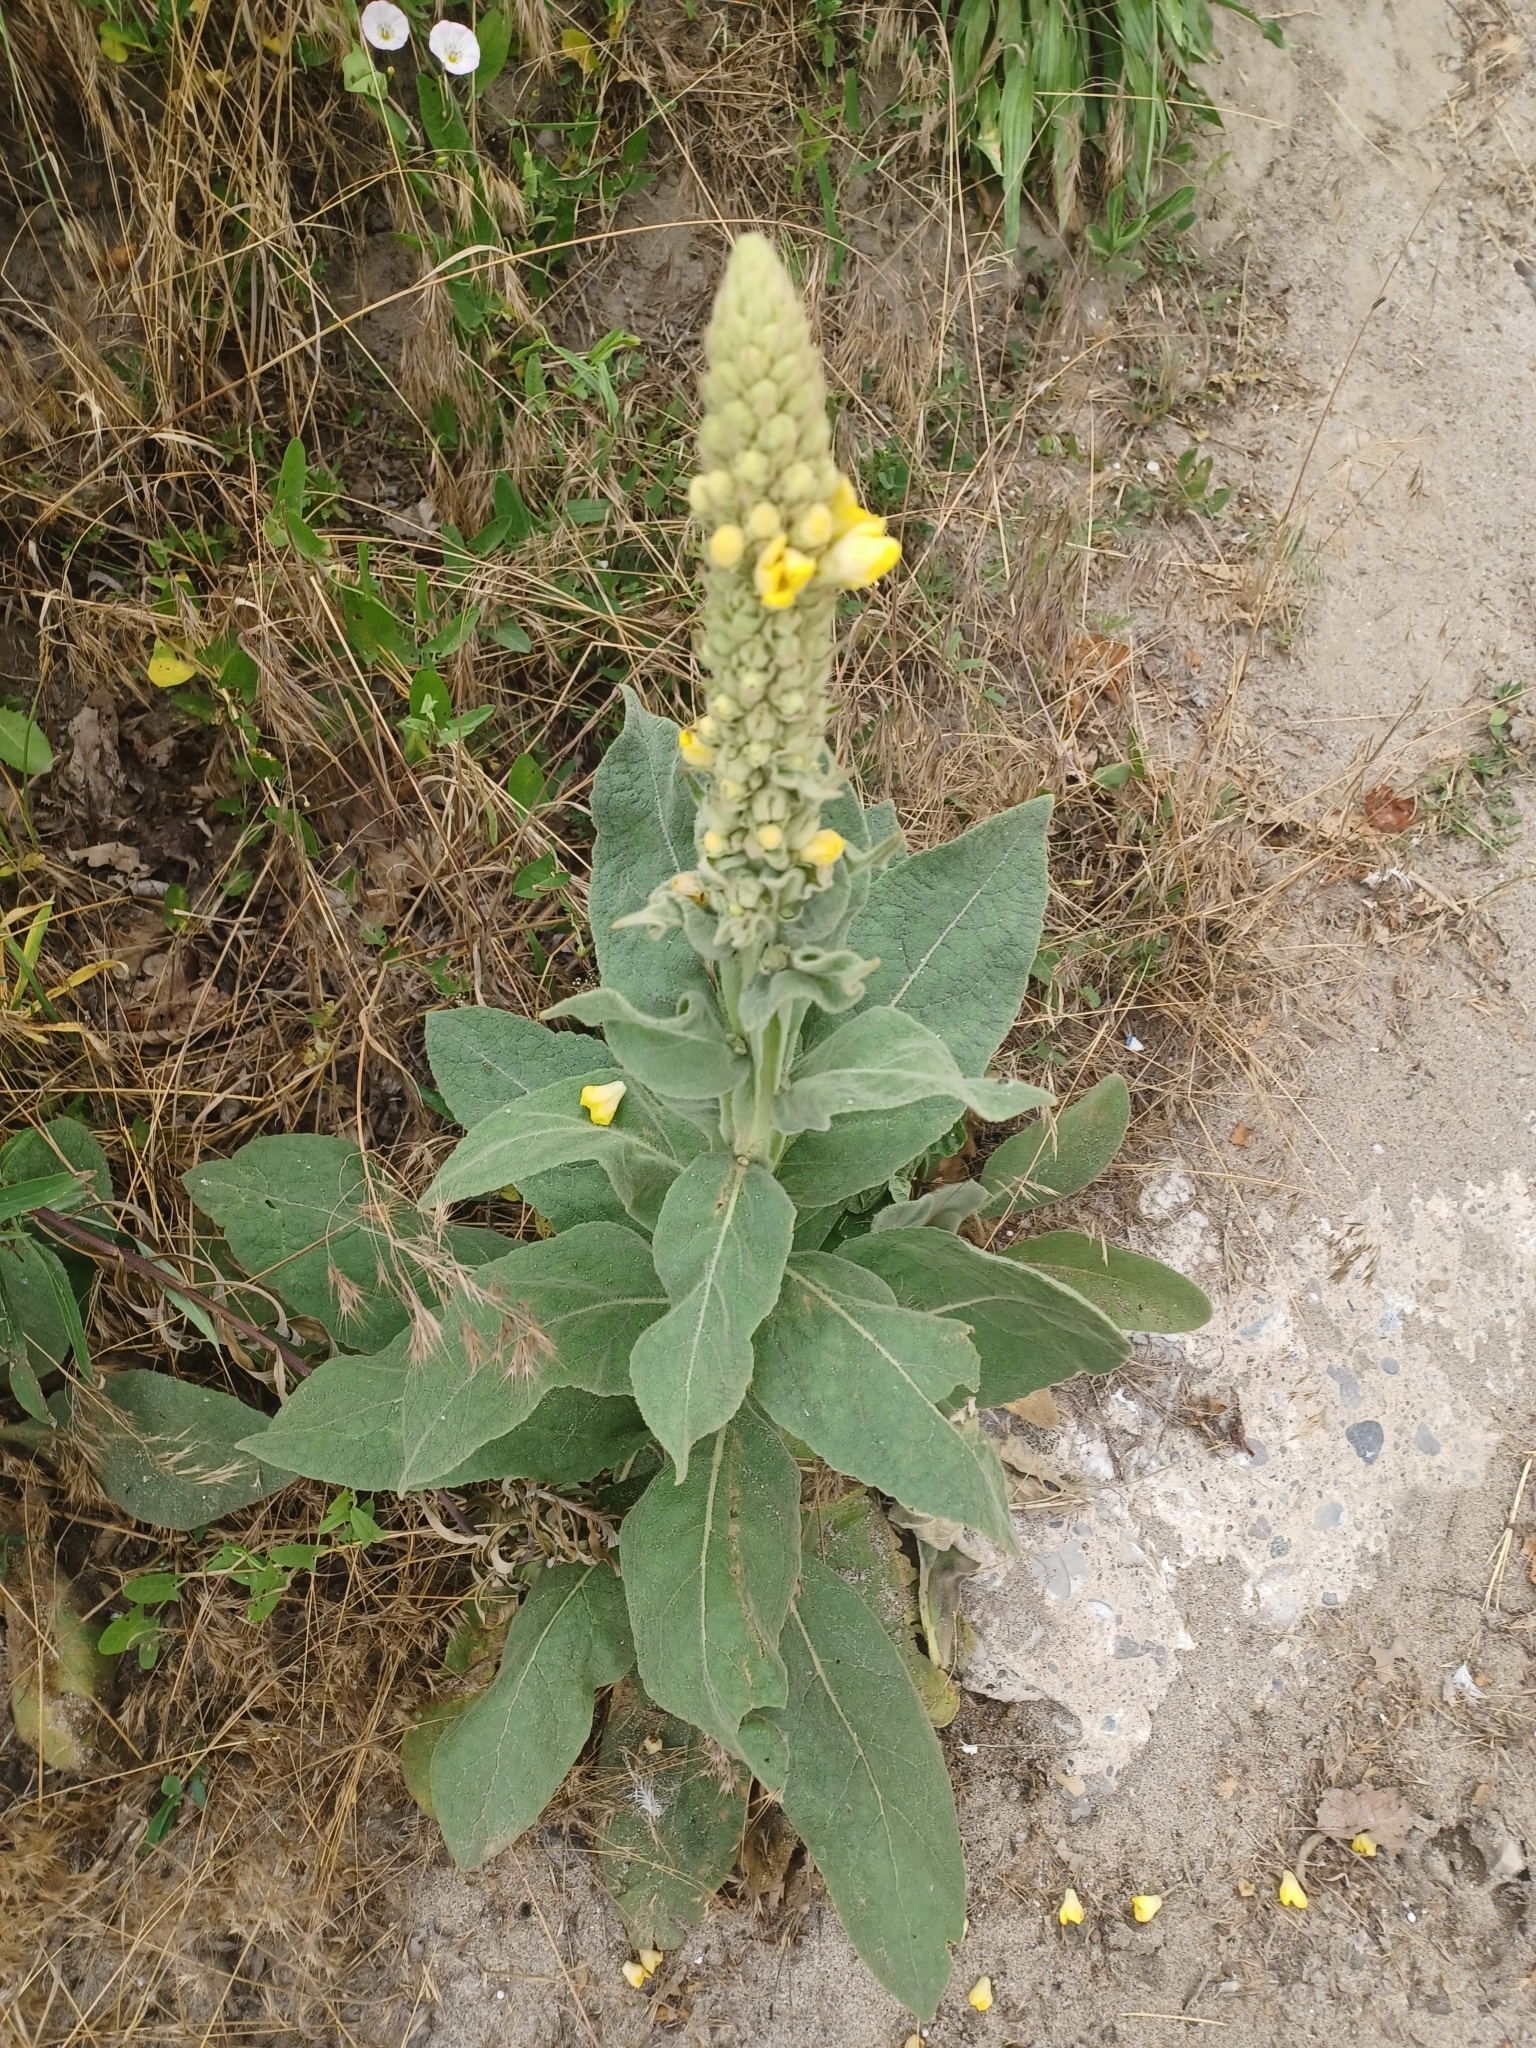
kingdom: Plantae
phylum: Tracheophyta
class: Magnoliopsida
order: Lamiales
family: Scrophulariaceae
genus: Verbascum
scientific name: Verbascum thapsus
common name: Common mullein
